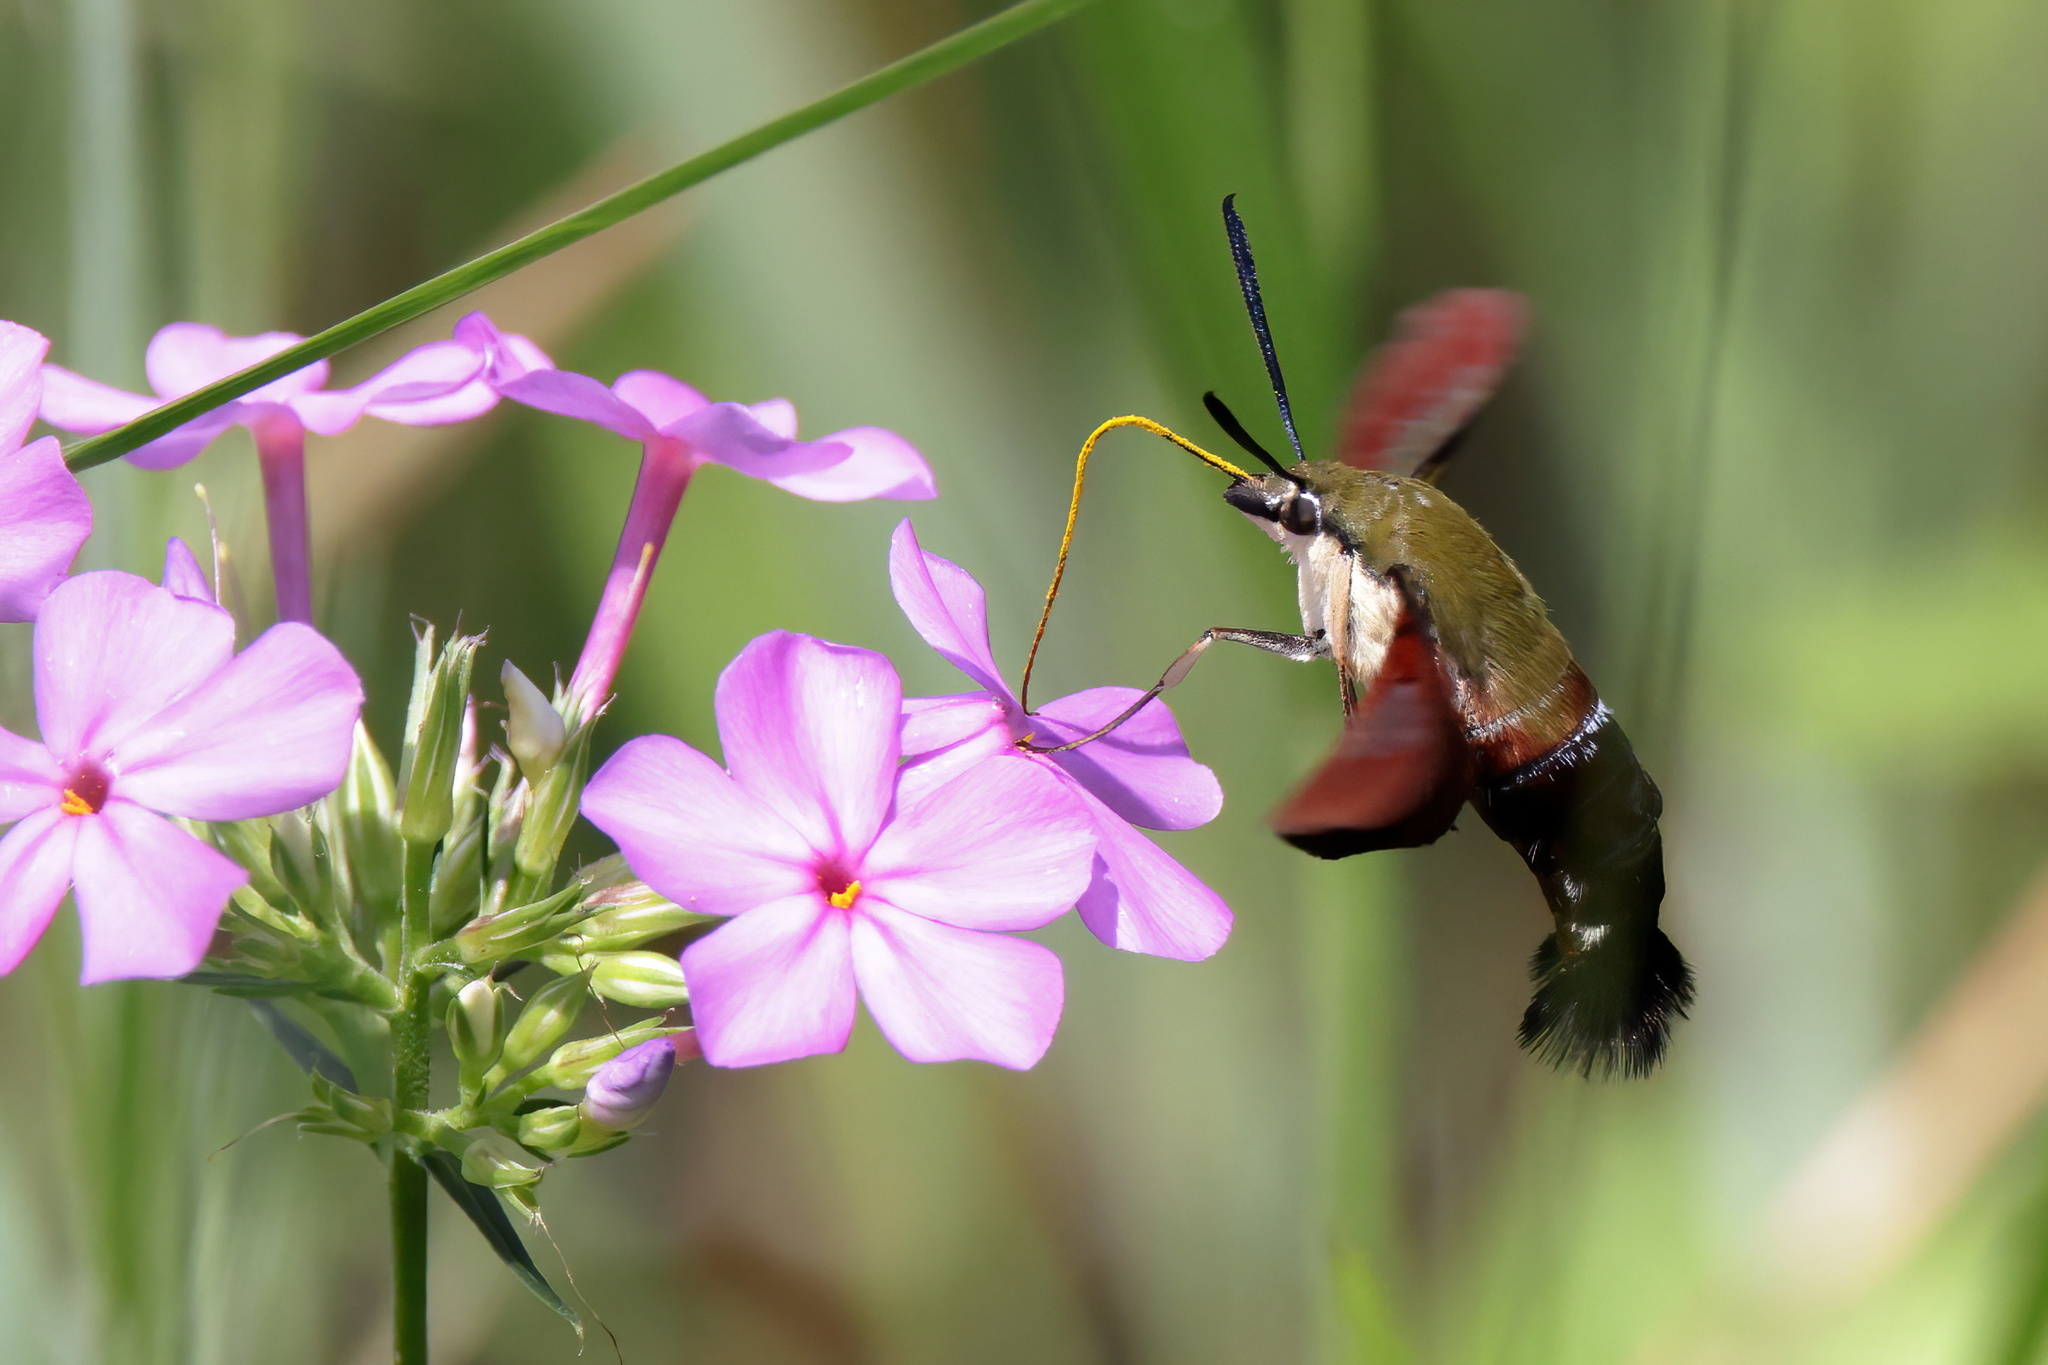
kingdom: Animalia
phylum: Arthropoda
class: Insecta
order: Lepidoptera
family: Sphingidae
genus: Hemaris
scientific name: Hemaris thysbe
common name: Common clear-wing
